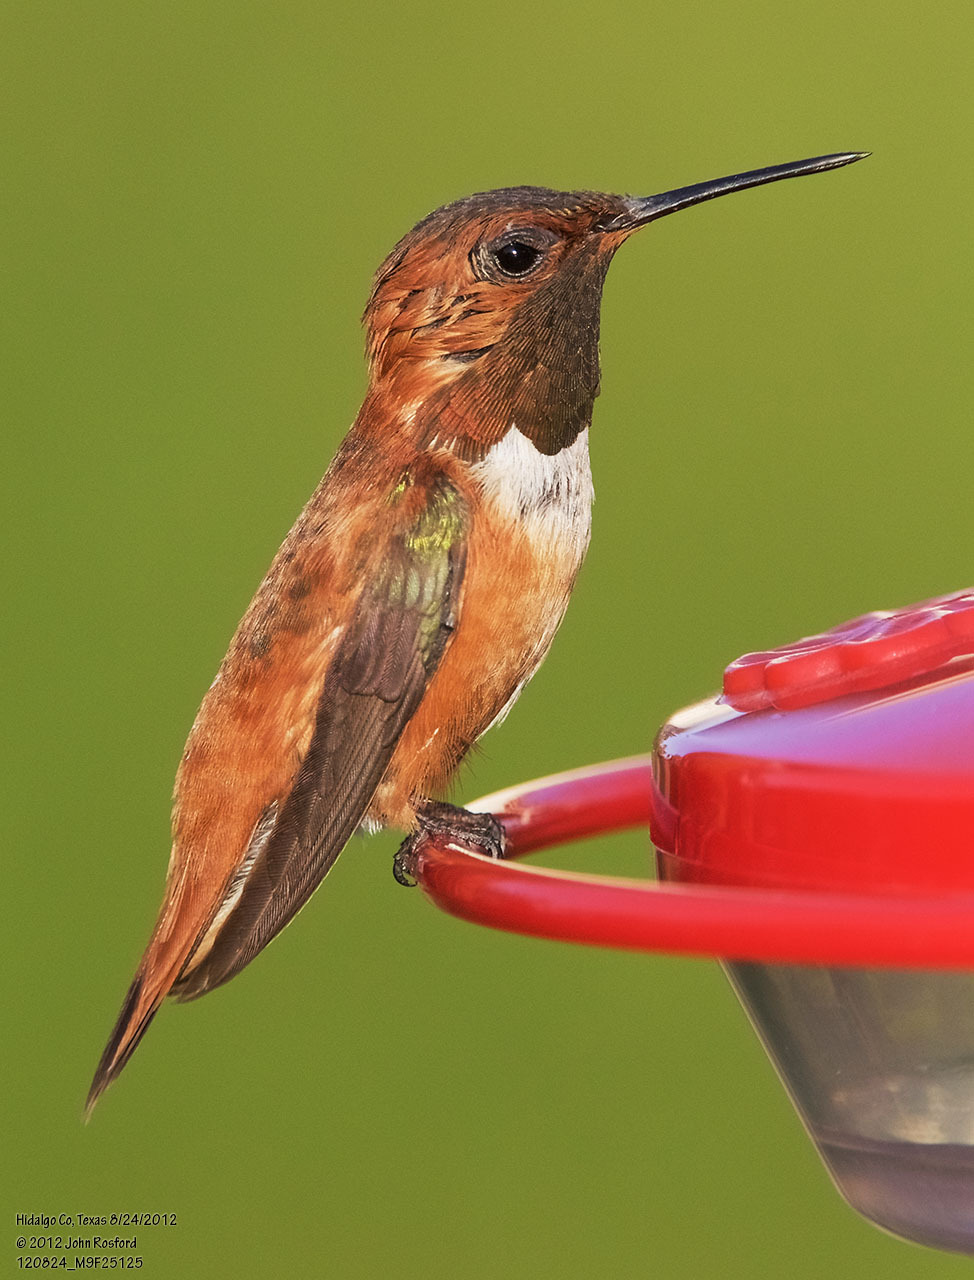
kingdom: Animalia
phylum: Chordata
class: Aves
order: Apodiformes
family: Trochilidae
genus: Selasphorus
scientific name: Selasphorus rufus
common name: Rufous hummingbird
